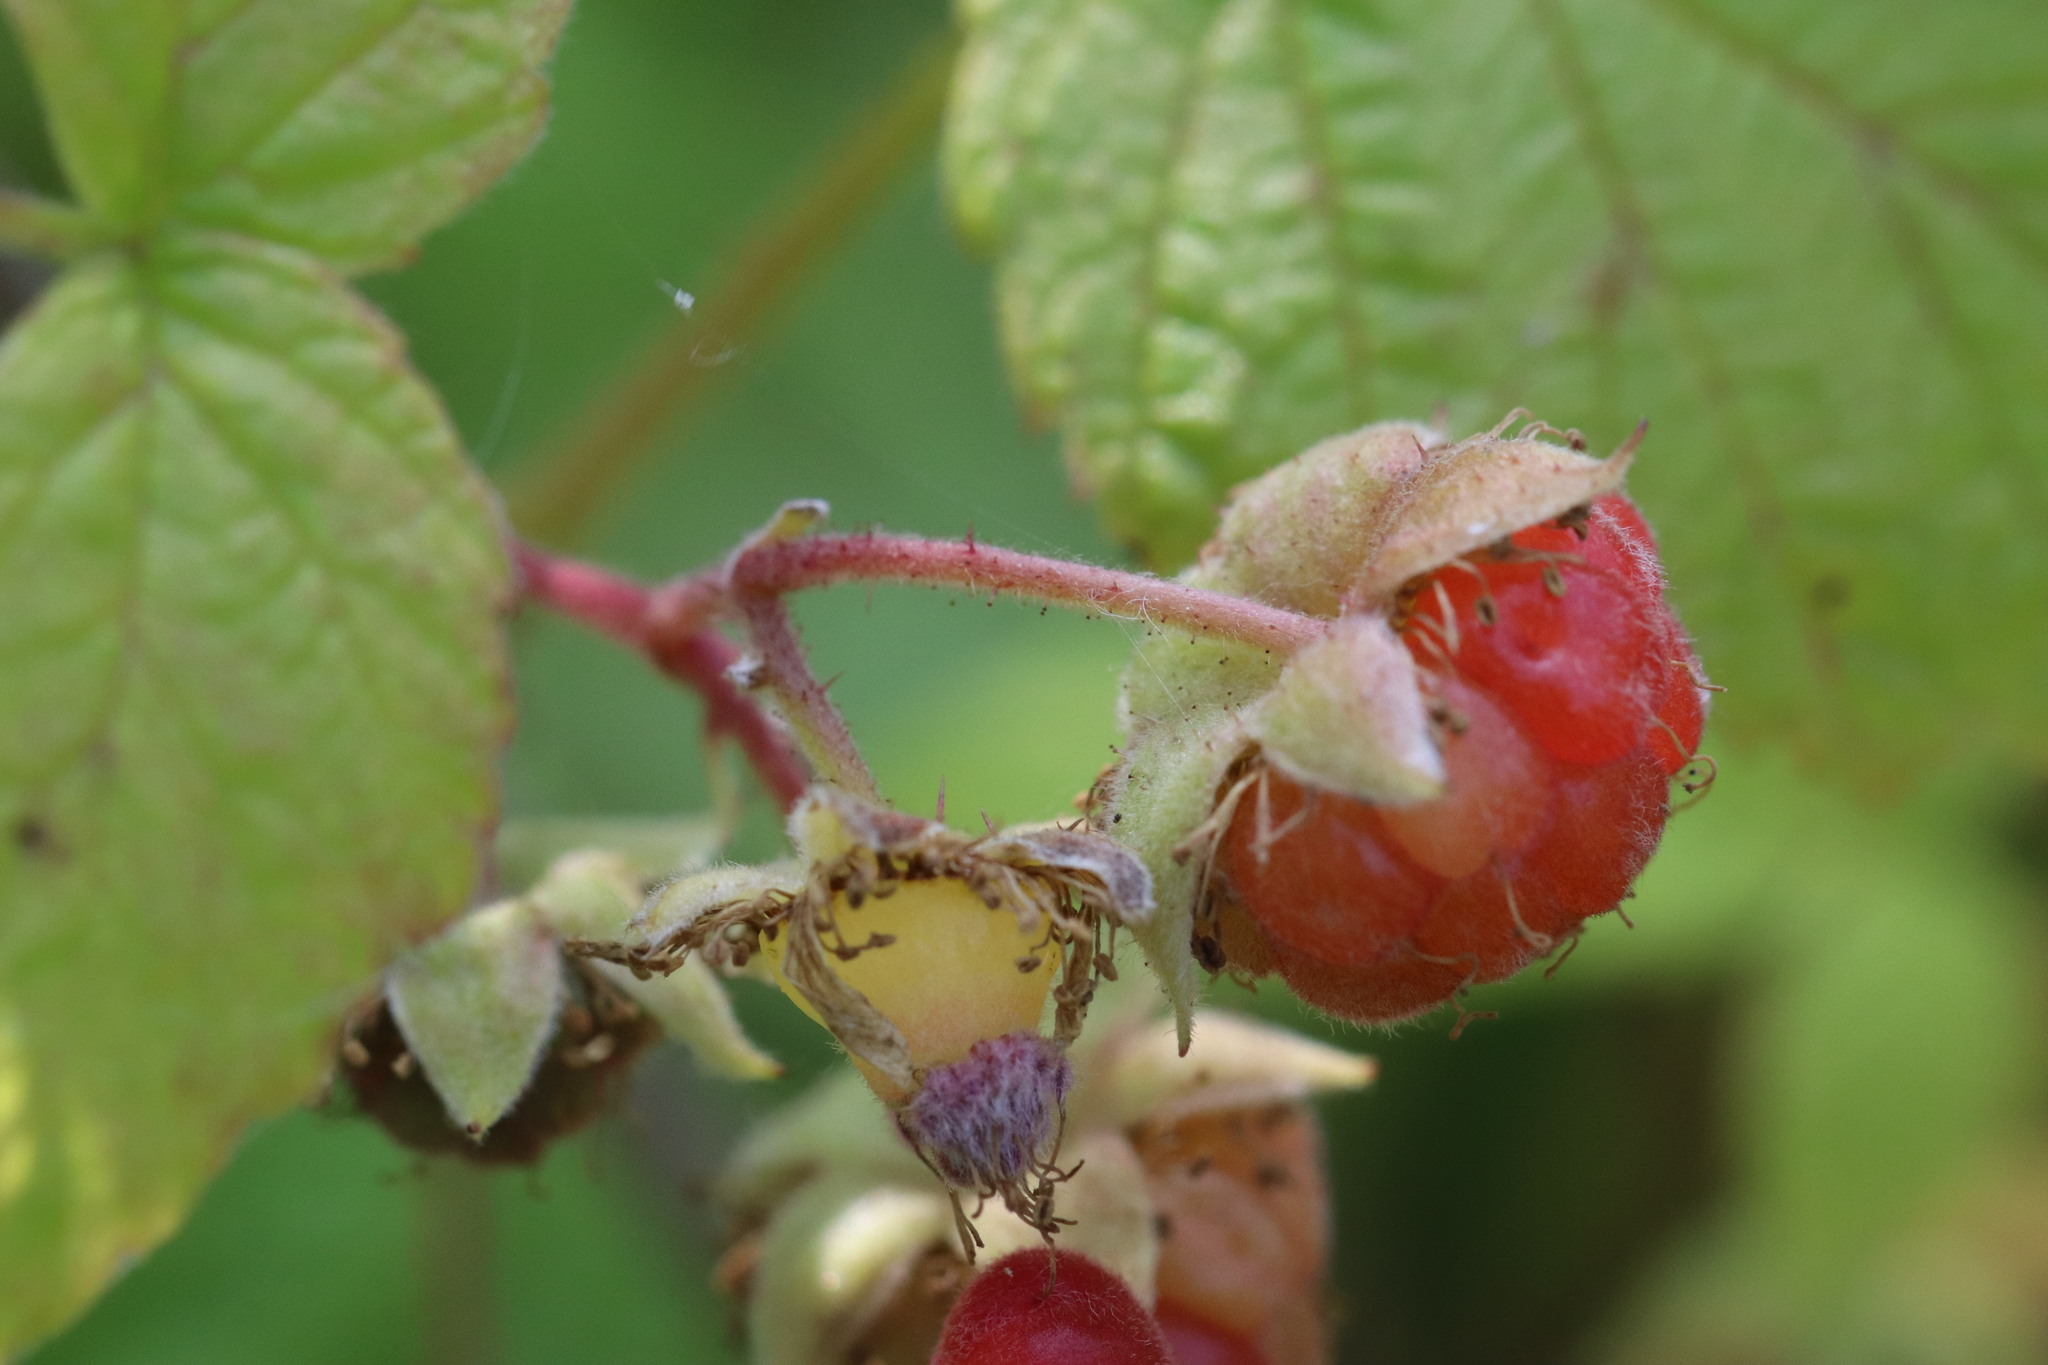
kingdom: Plantae
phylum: Tracheophyta
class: Magnoliopsida
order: Rosales
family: Rosaceae
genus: Rubus
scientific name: Rubus sachalinensis
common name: Red raspberry
